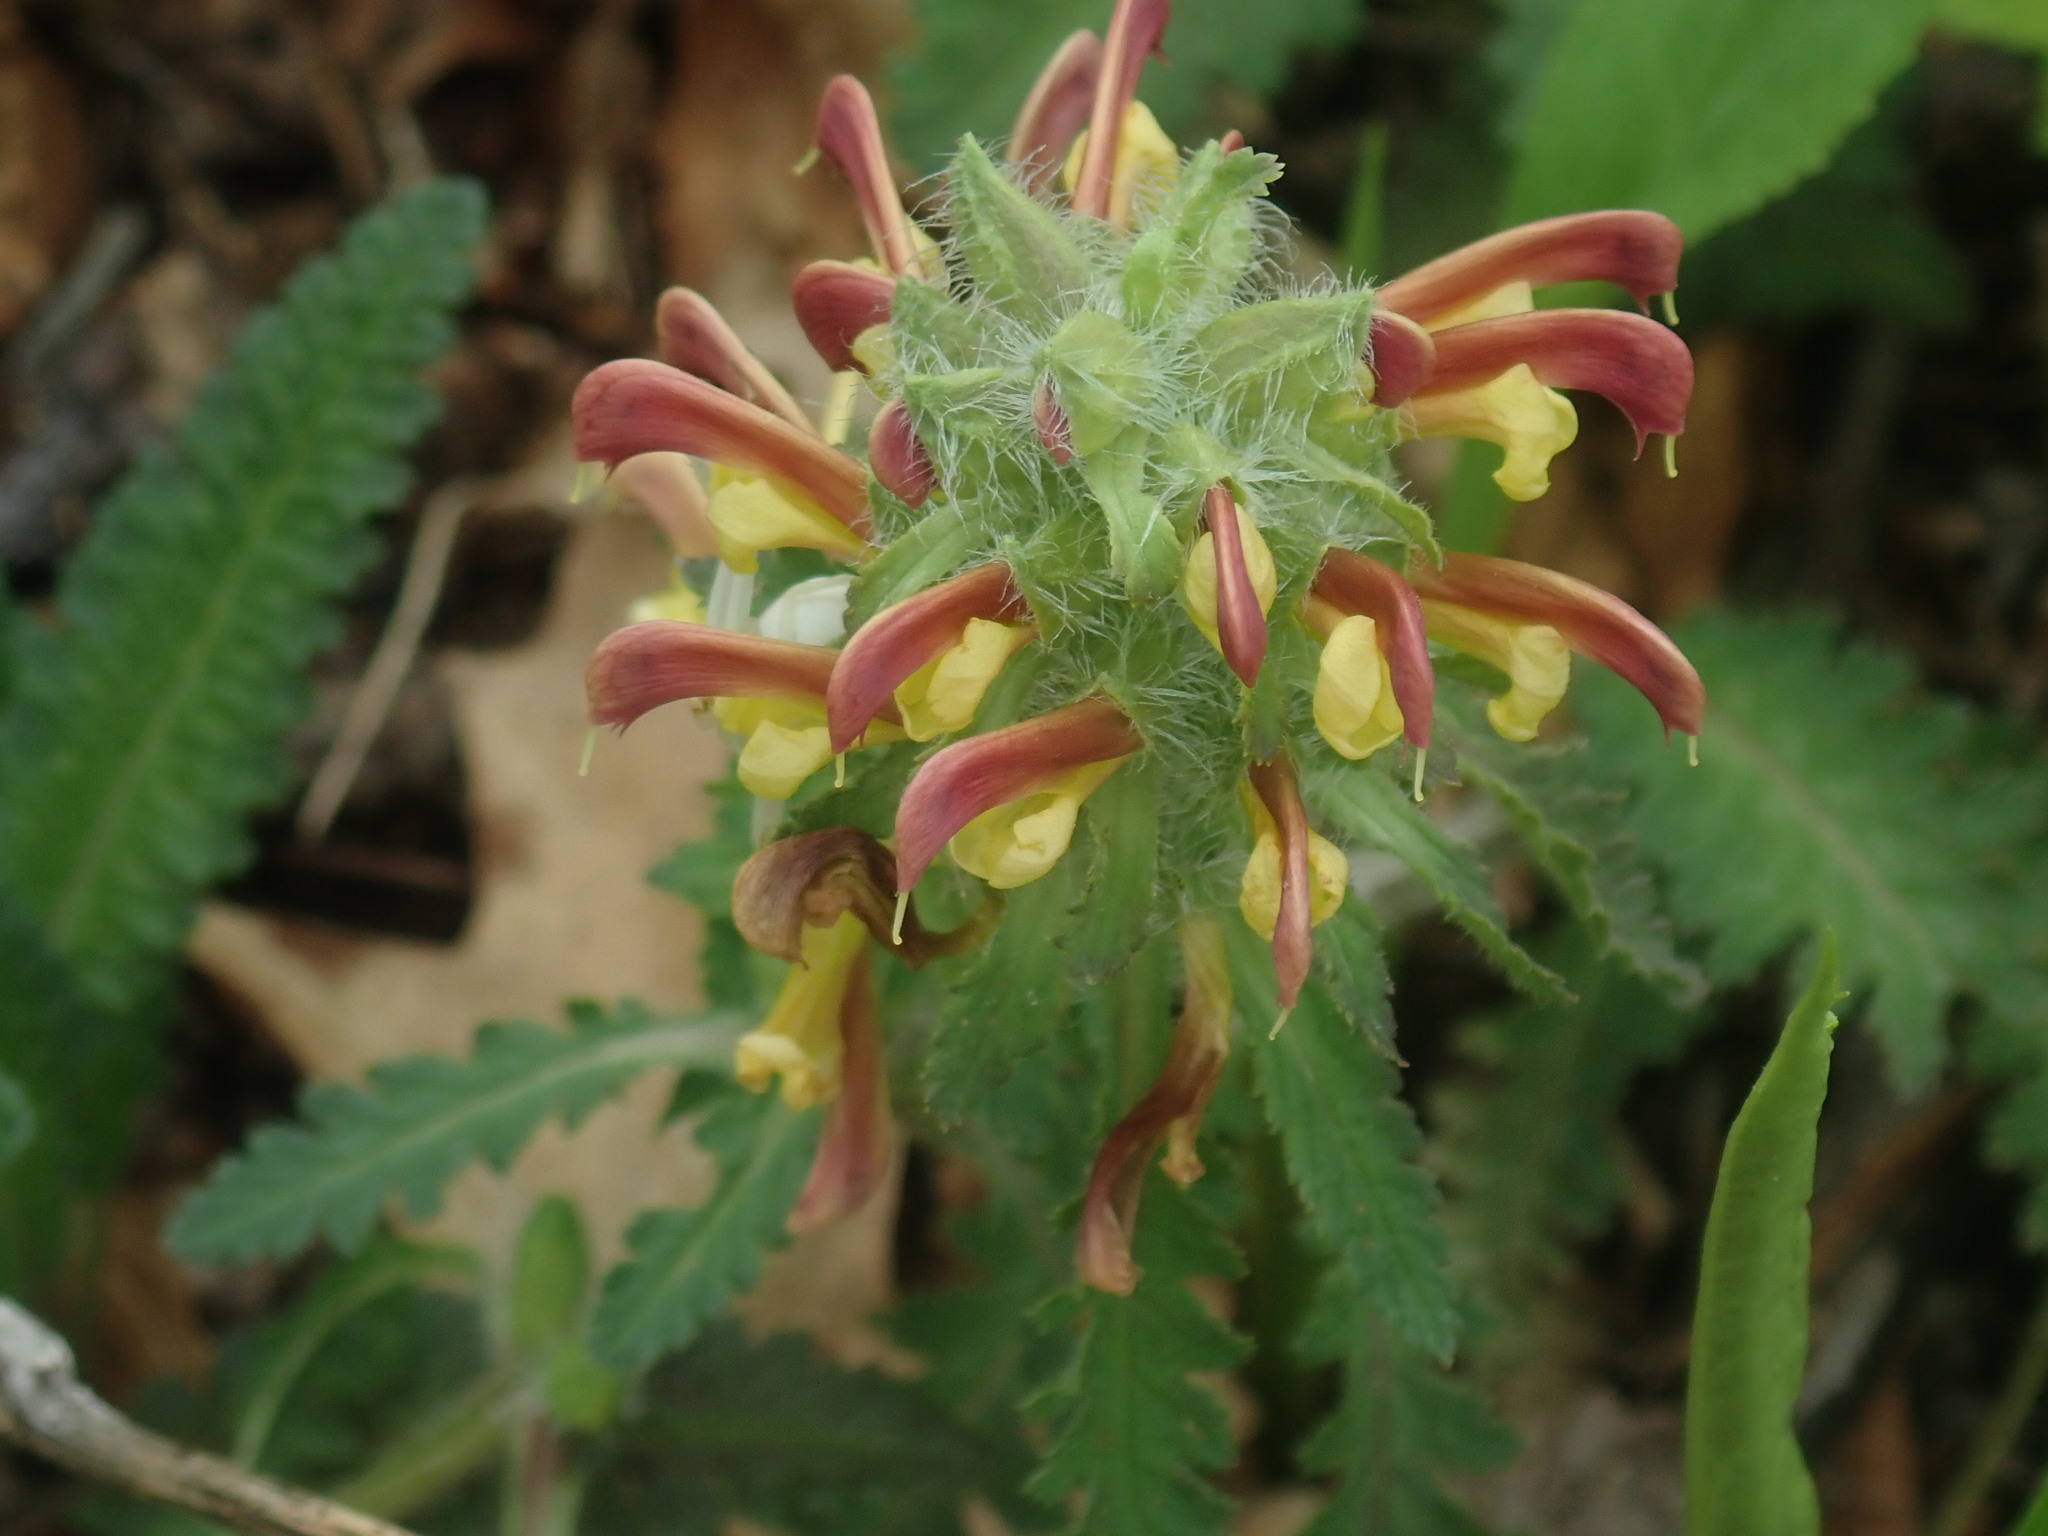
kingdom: Plantae
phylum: Tracheophyta
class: Magnoliopsida
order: Lamiales
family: Orobanchaceae
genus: Pedicularis
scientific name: Pedicularis canadensis
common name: Early lousewort
